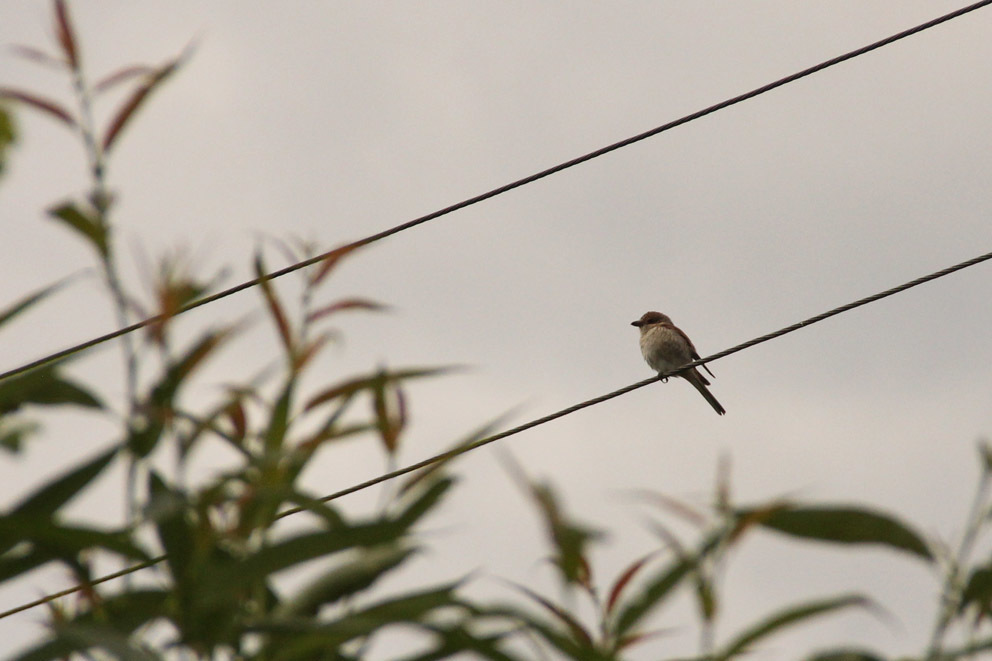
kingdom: Animalia
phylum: Chordata
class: Aves
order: Passeriformes
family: Laniidae
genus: Lanius
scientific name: Lanius collurio
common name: Red-backed shrike
